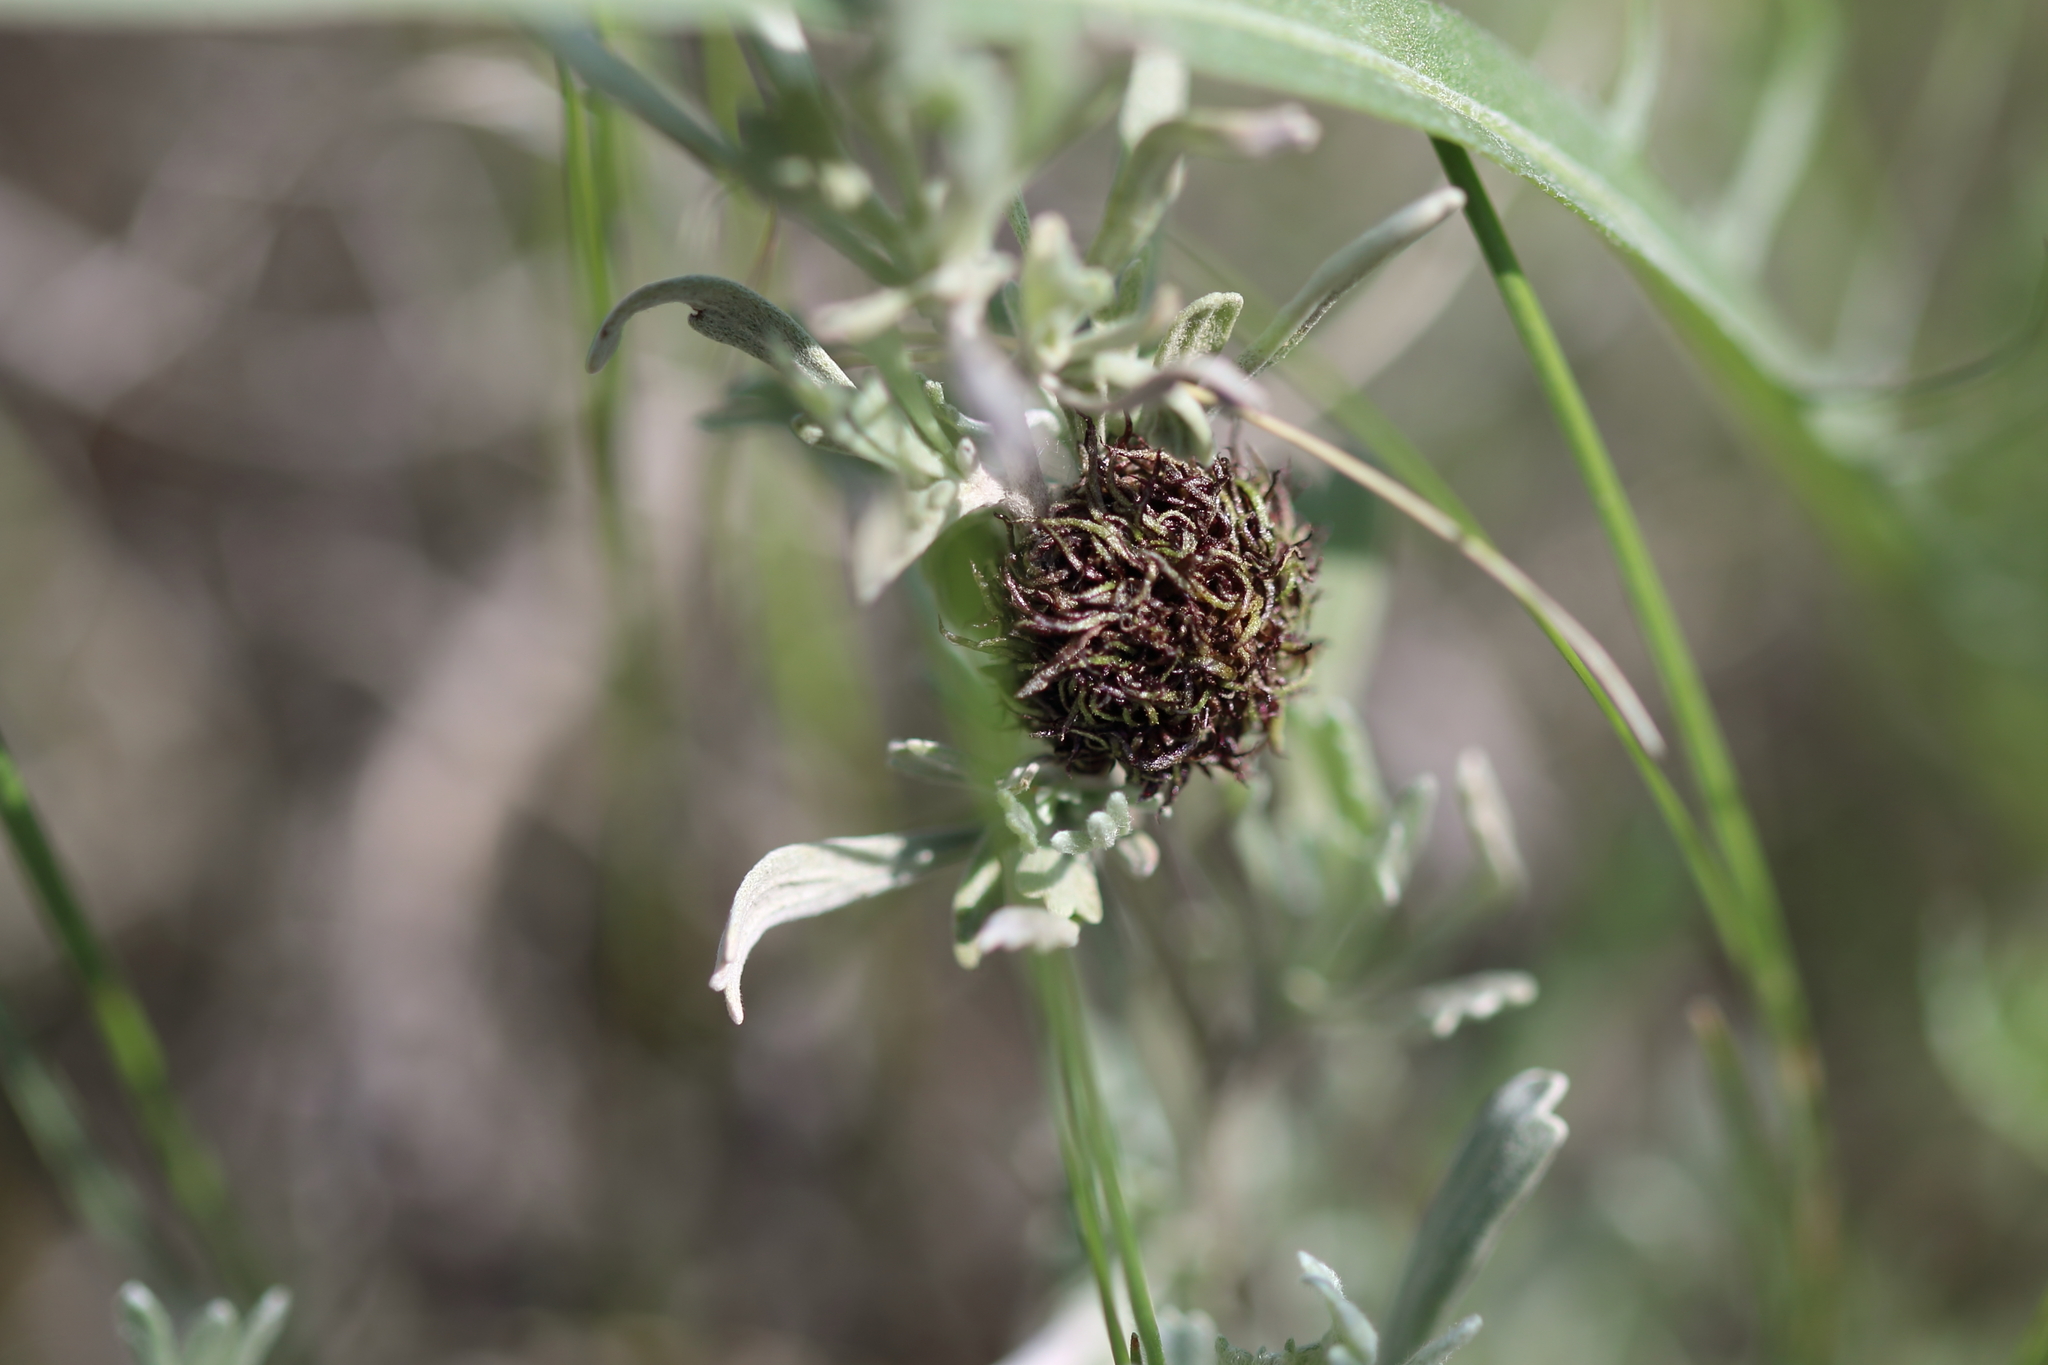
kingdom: Animalia
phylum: Arthropoda
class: Insecta
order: Diptera
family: Cecidomyiidae
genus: Rhopalomyia
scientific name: Rhopalomyia medusa
